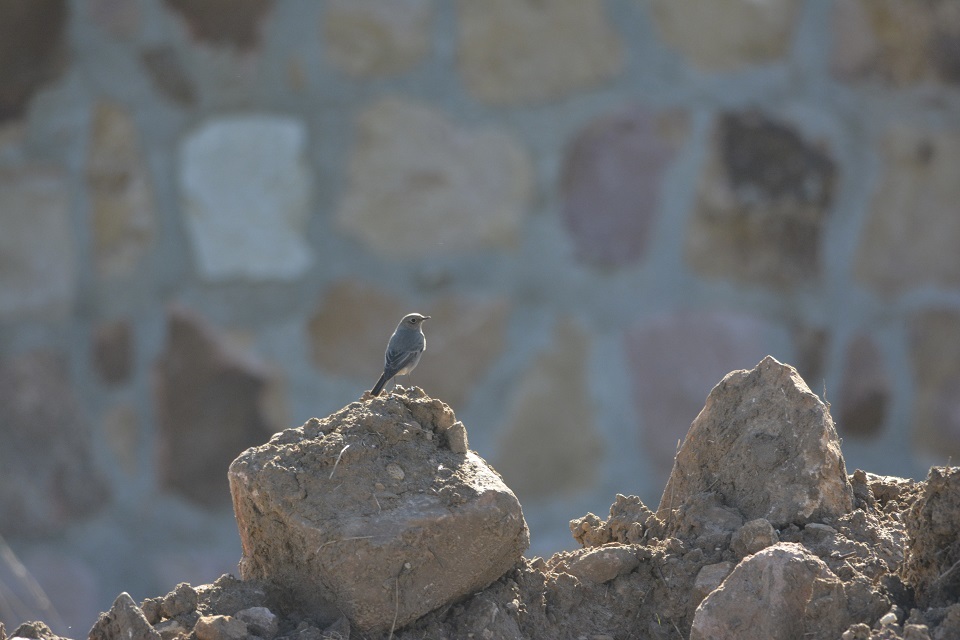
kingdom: Animalia
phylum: Chordata
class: Aves
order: Passeriformes
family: Muscicapidae
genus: Phoenicurus
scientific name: Phoenicurus ochruros
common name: Black redstart
